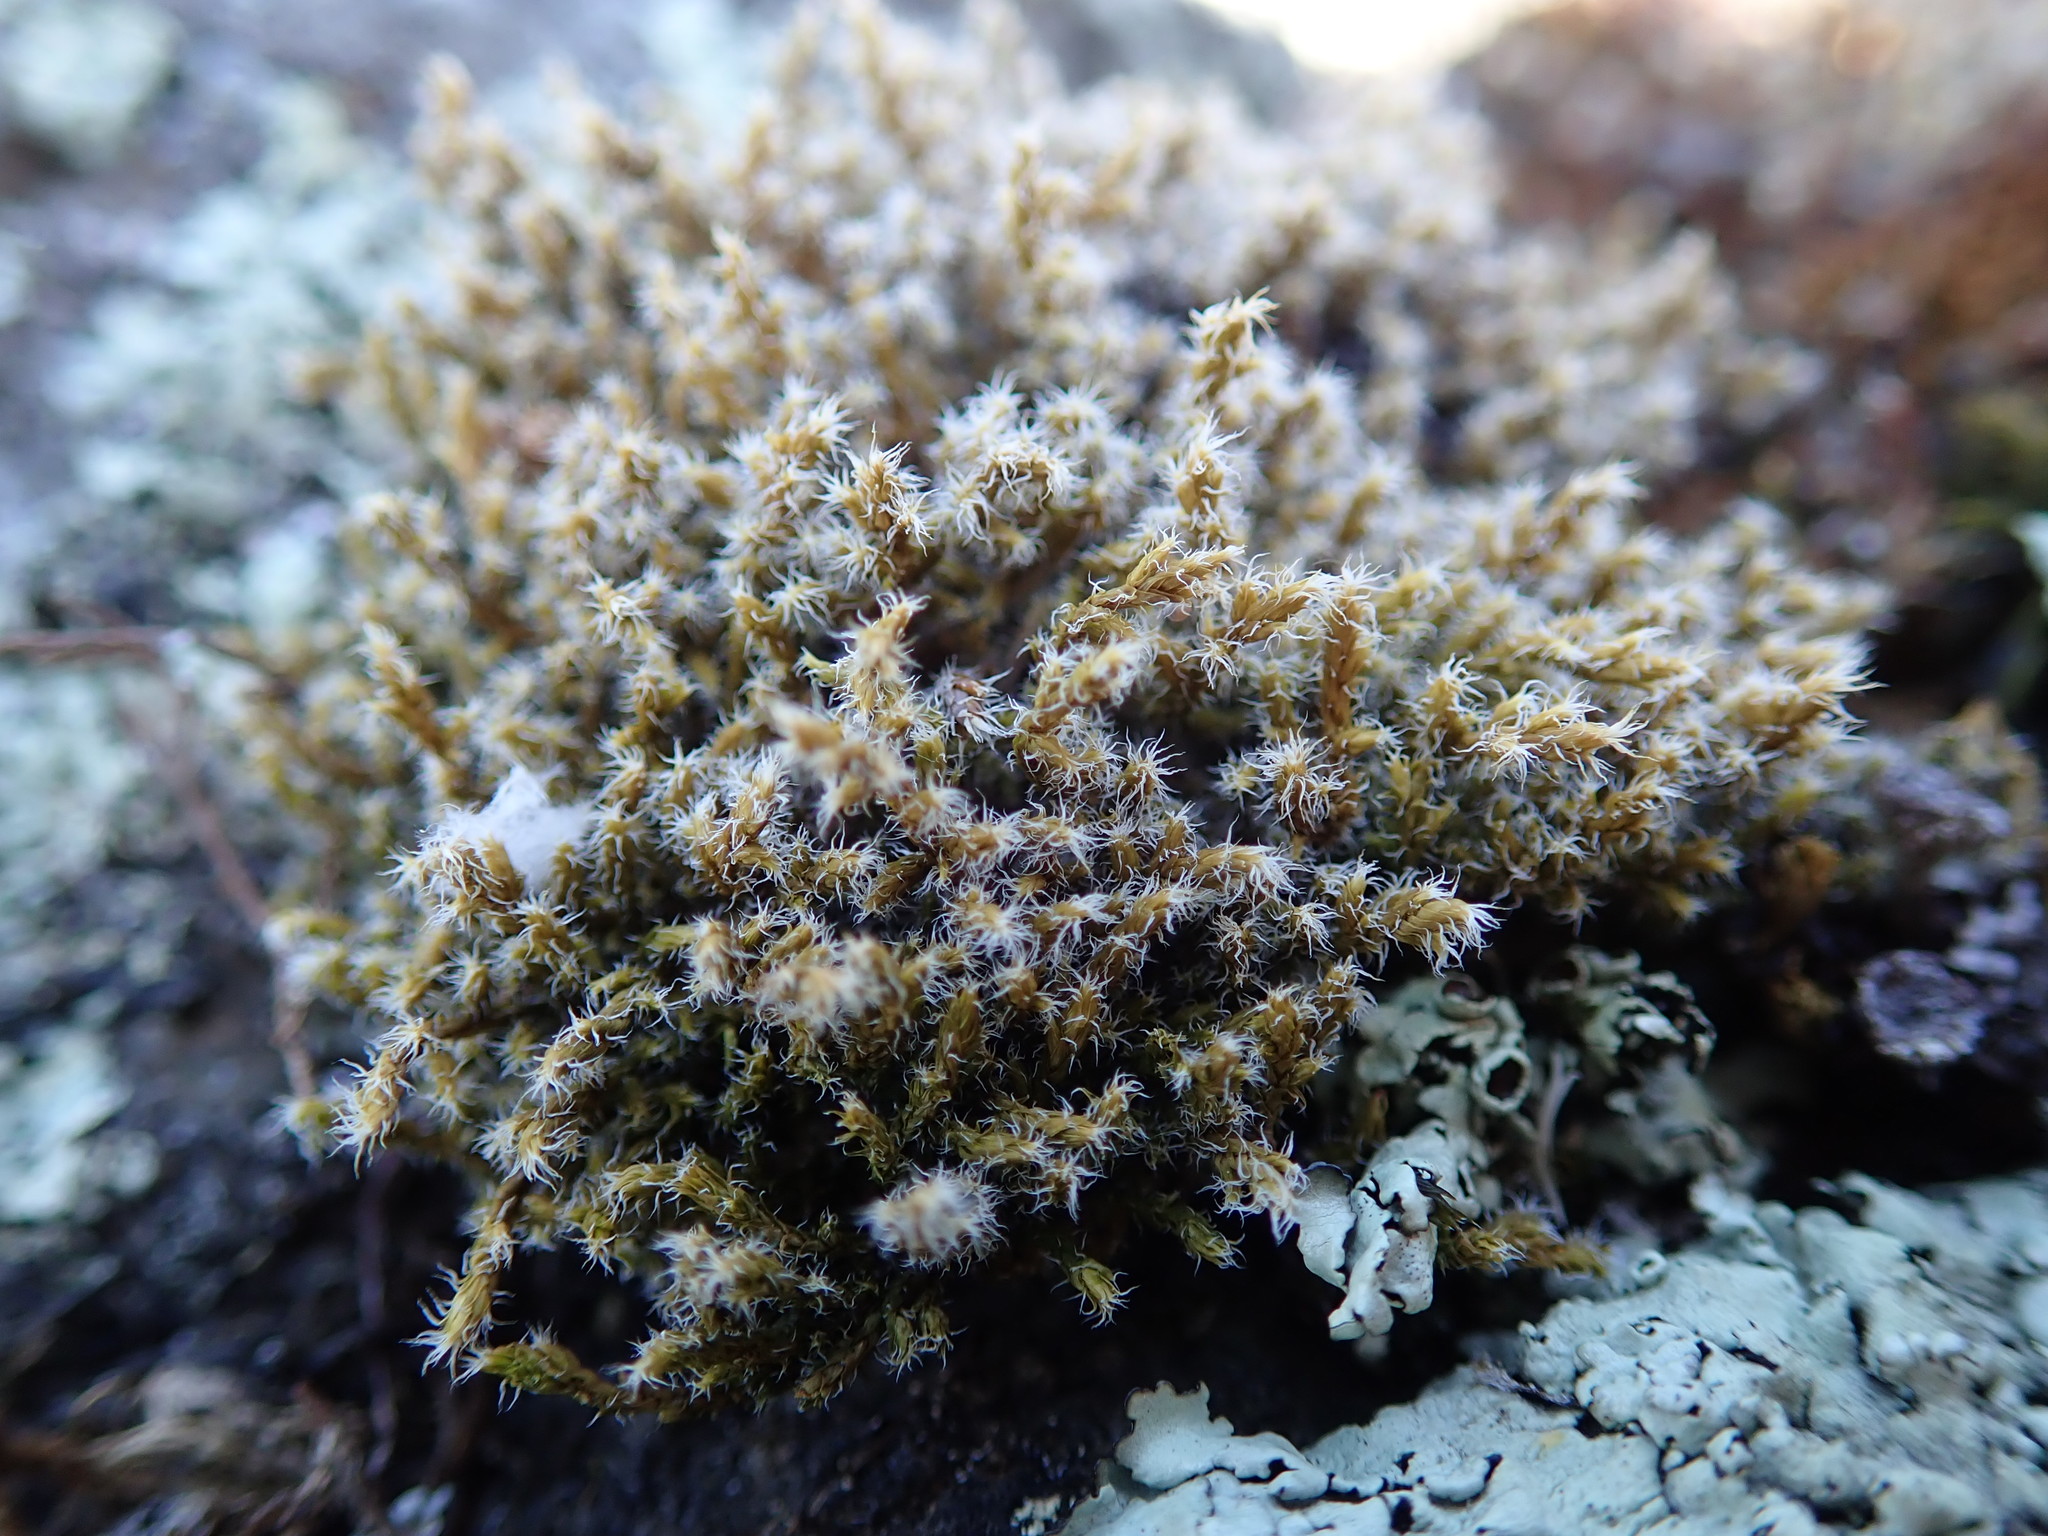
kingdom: Plantae
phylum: Bryophyta
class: Bryopsida
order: Grimmiales
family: Grimmiaceae
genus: Racomitrium
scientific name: Racomitrium lanuginosum
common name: Hoary rock moss
